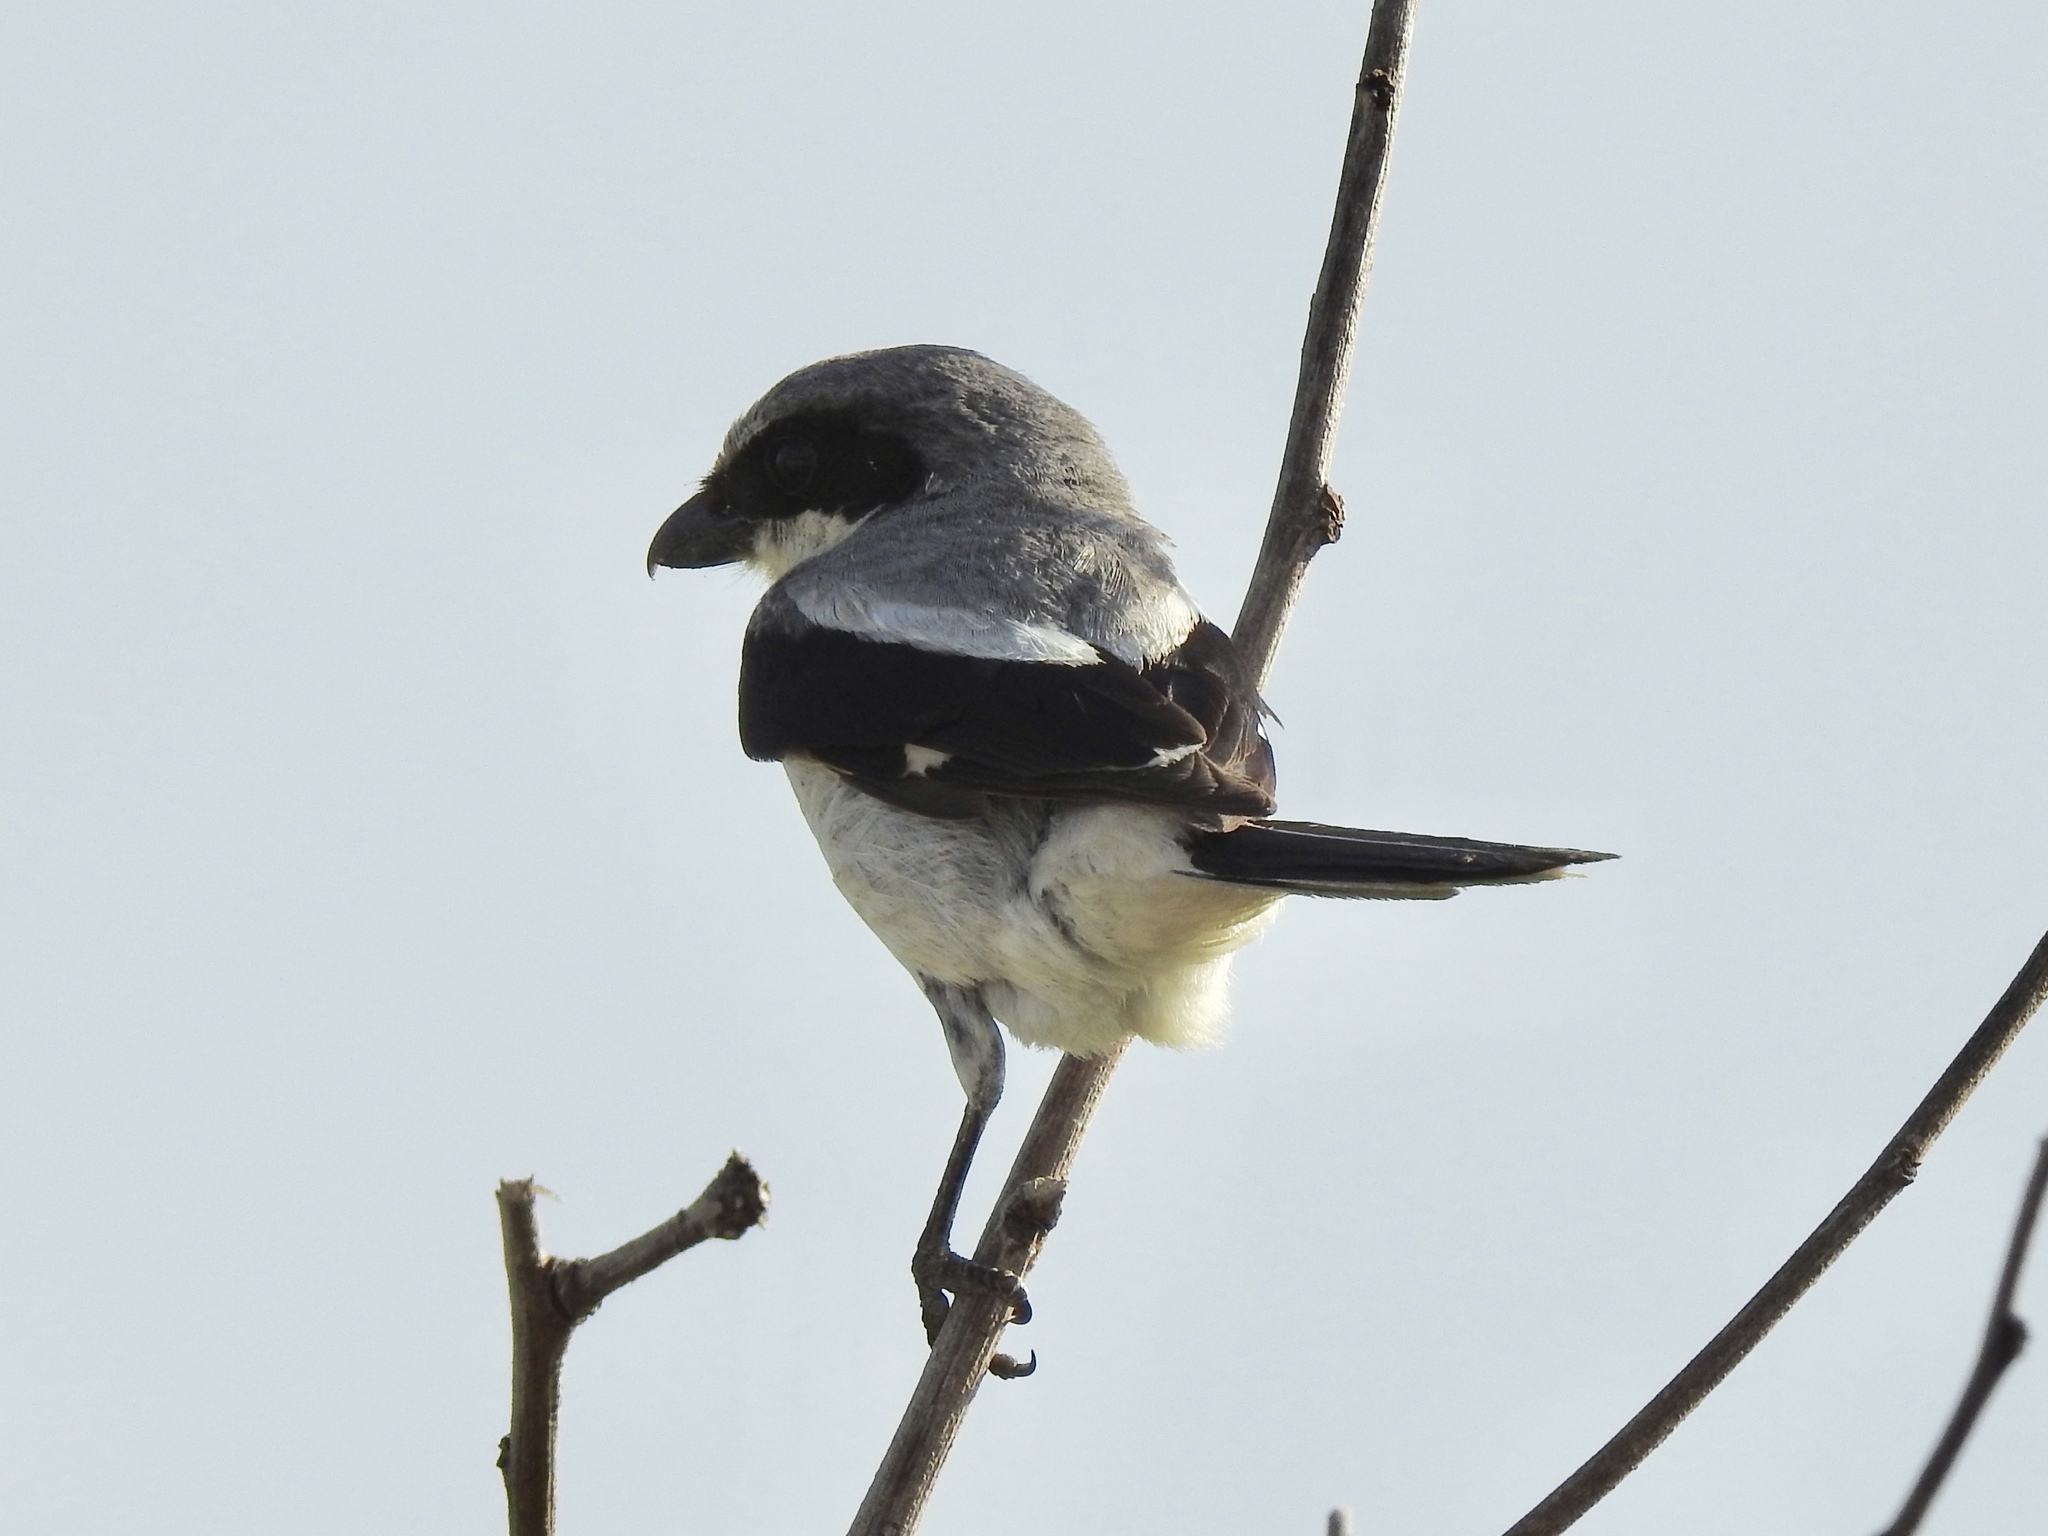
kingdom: Animalia
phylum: Chordata
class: Aves
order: Passeriformes
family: Laniidae
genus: Lanius
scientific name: Lanius ludovicianus
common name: Loggerhead shrike
